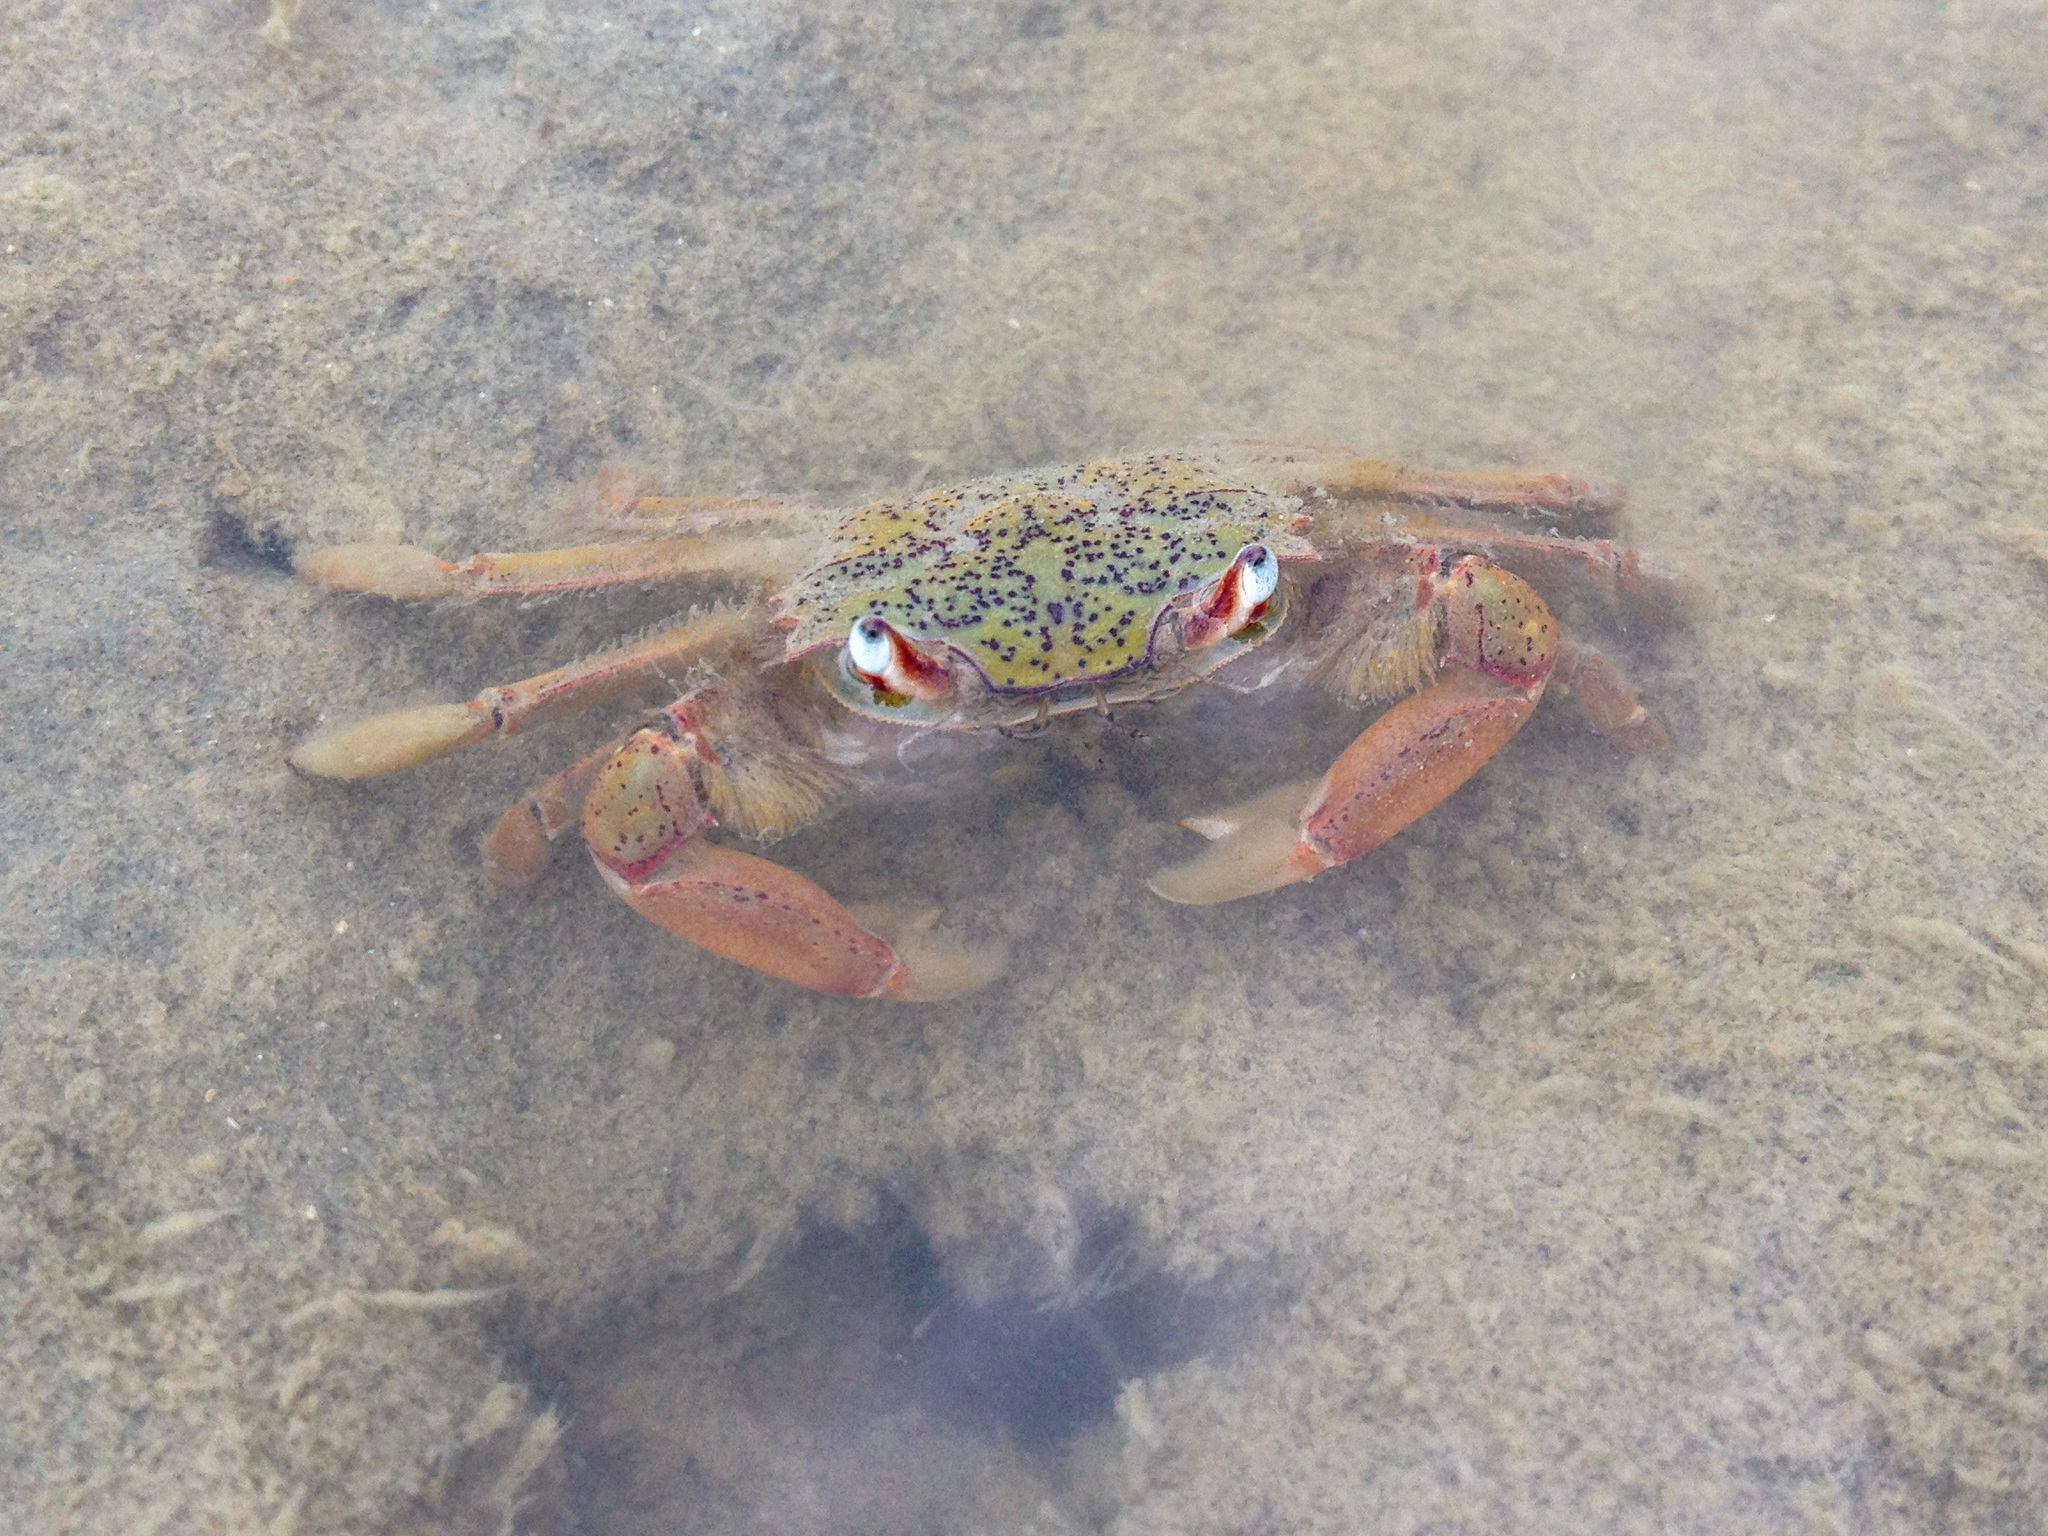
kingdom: Animalia
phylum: Arthropoda
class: Malacostraca
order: Decapoda
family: Macrophthalmidae
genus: Hemiplax
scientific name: Hemiplax hirtipes
